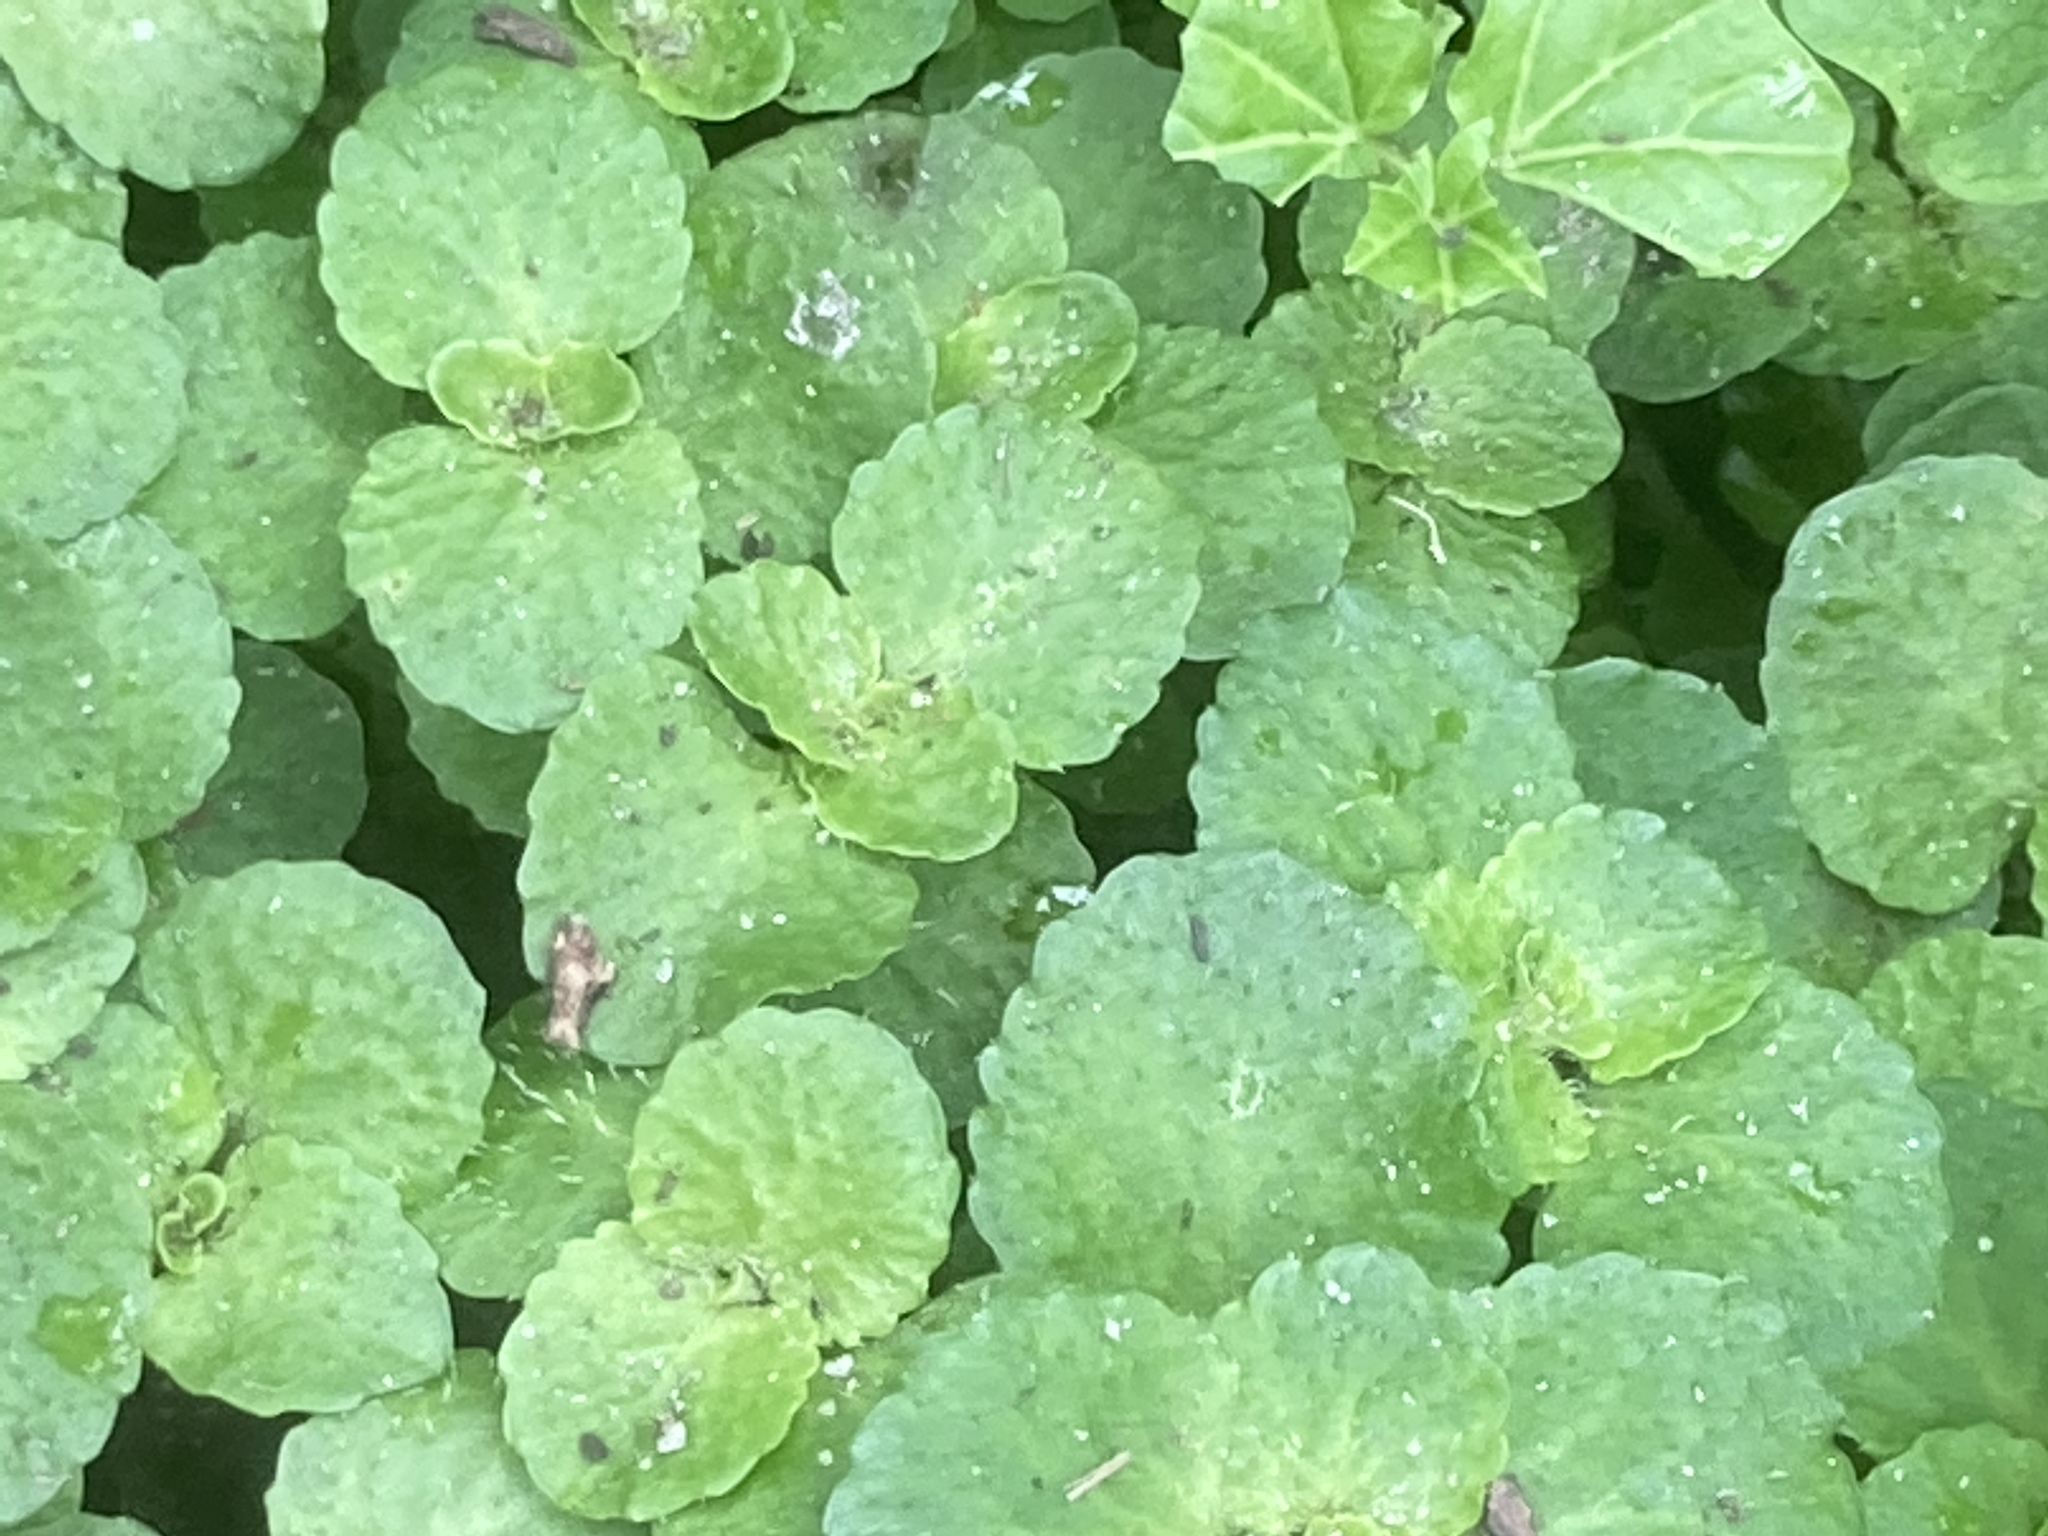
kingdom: Plantae
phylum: Tracheophyta
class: Magnoliopsida
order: Saxifragales
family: Saxifragaceae
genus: Chrysosplenium
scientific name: Chrysosplenium oppositifolium
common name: Opposite-leaved golden-saxifrage
